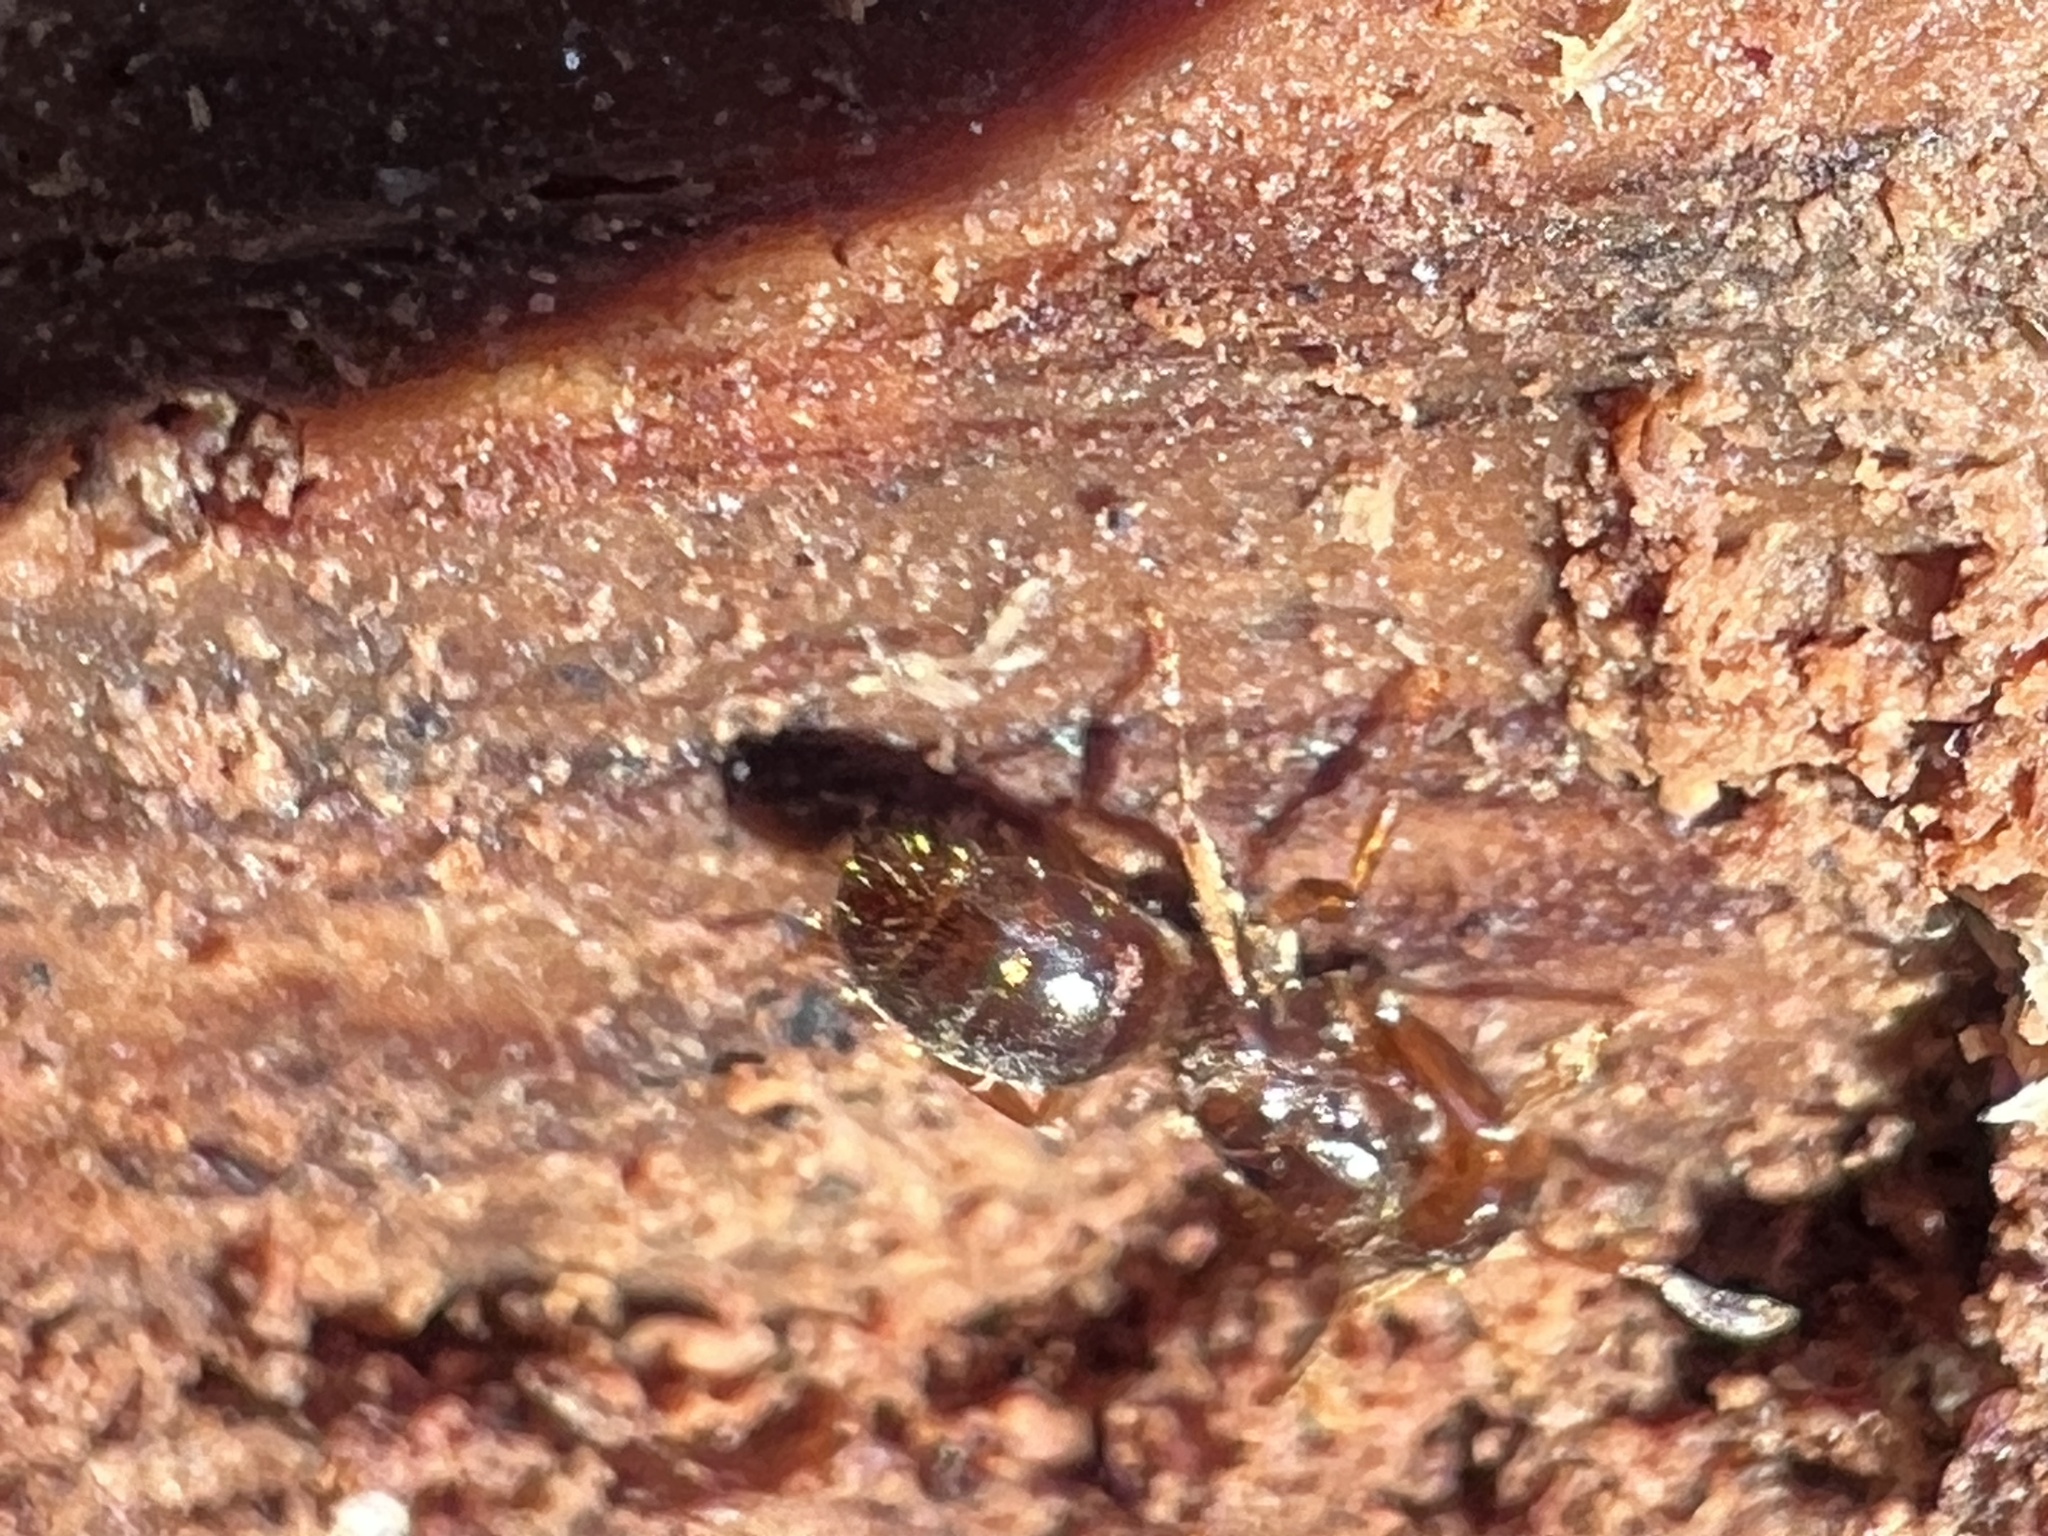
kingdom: Animalia
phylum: Arthropoda
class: Insecta
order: Hymenoptera
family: Formicidae
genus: Lasius
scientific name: Lasius claviger
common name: Common citronella ant
